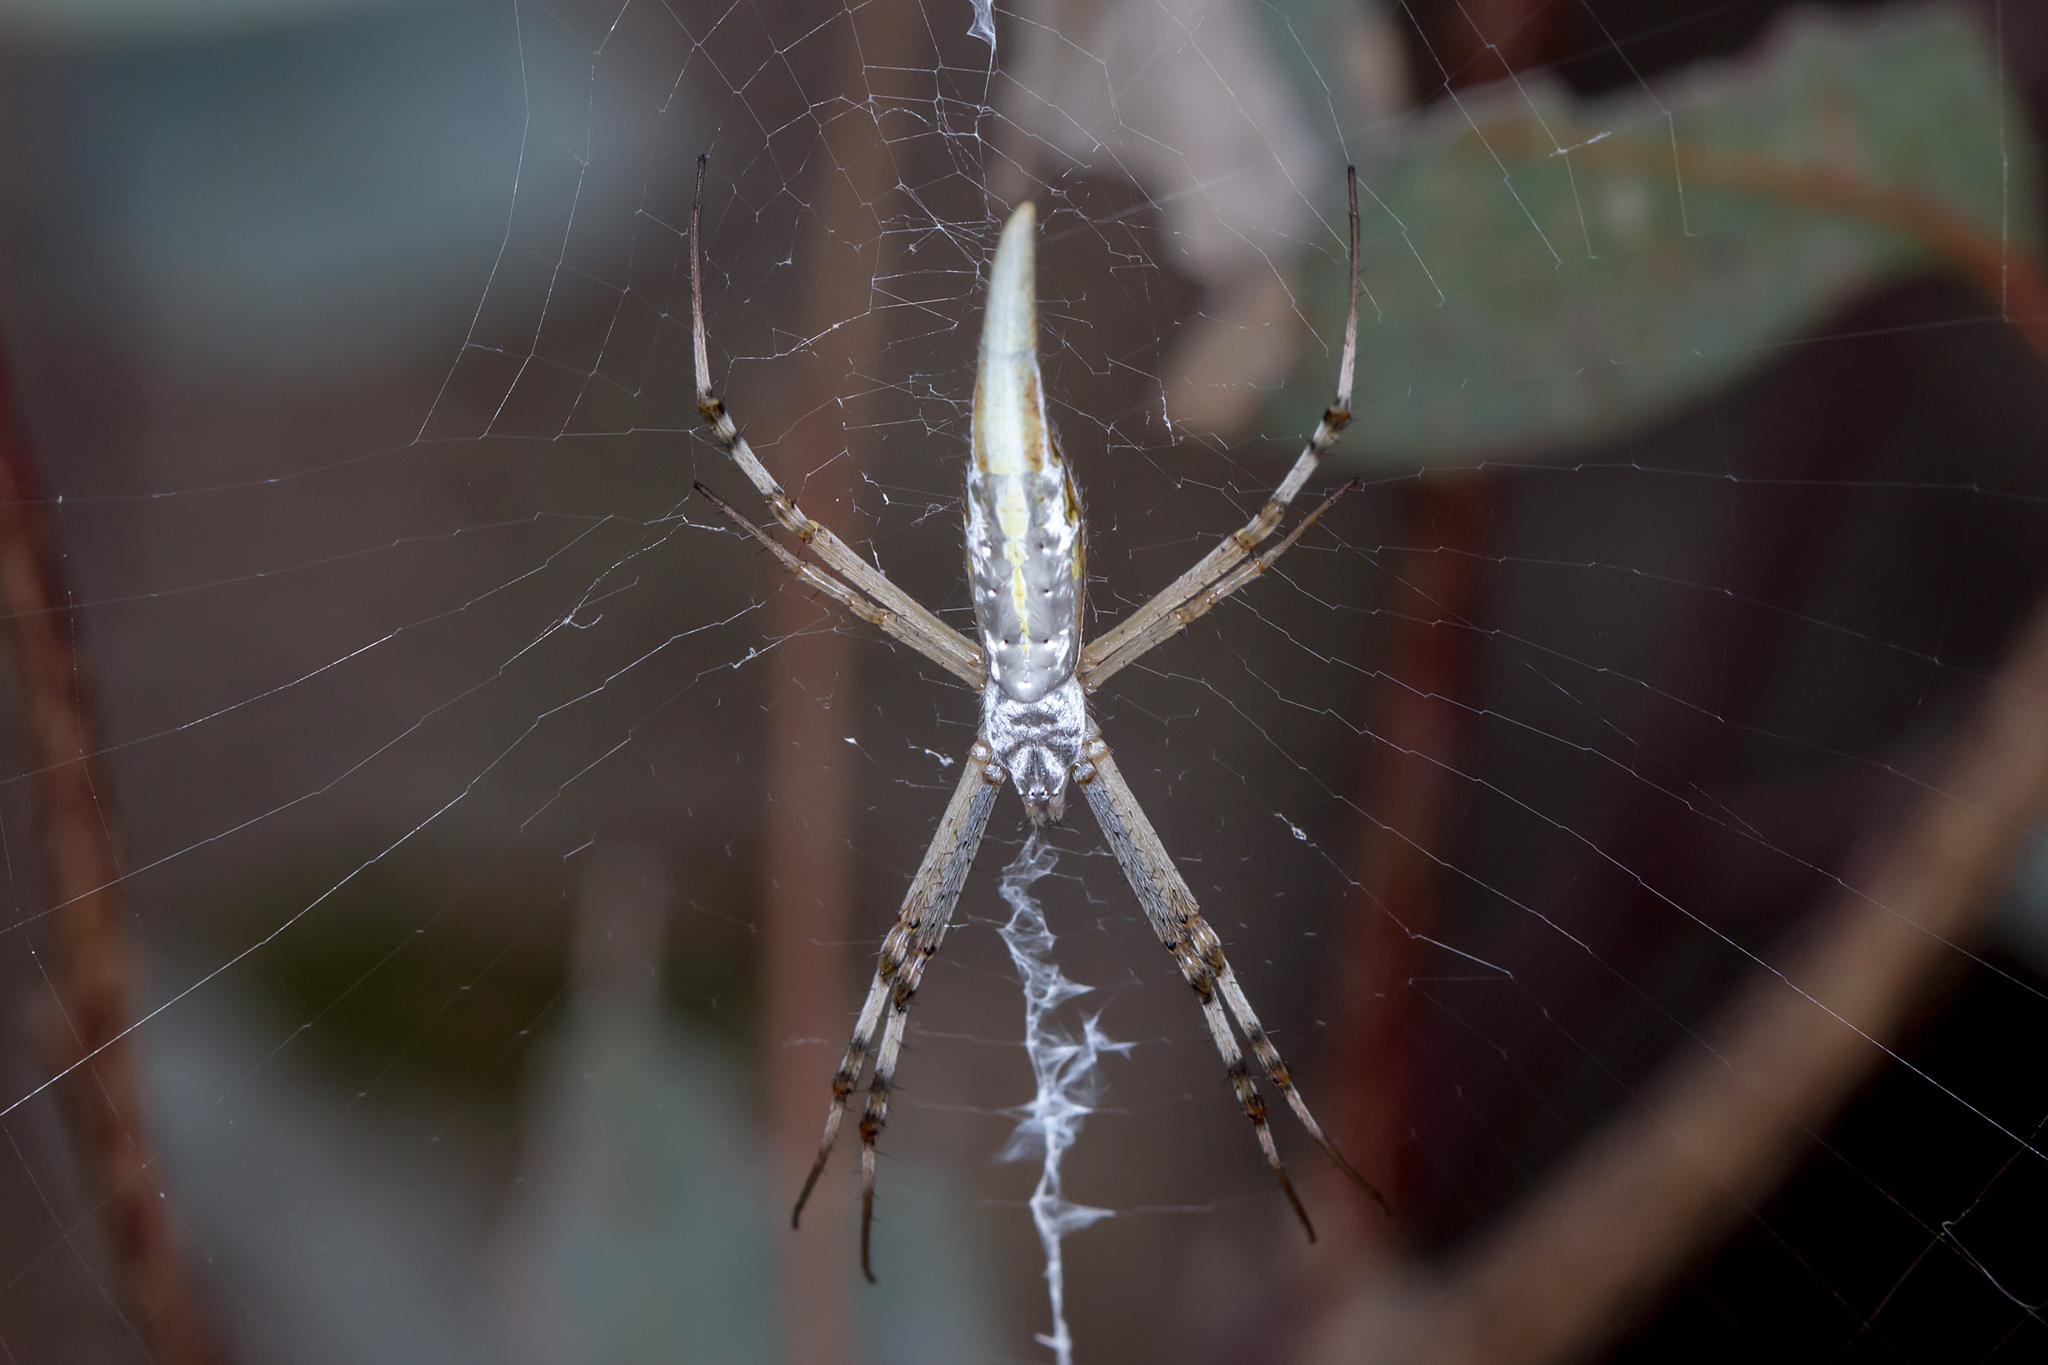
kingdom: Animalia
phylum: Arthropoda
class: Arachnida
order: Araneae
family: Araneidae
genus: Argiope
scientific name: Argiope protensa
